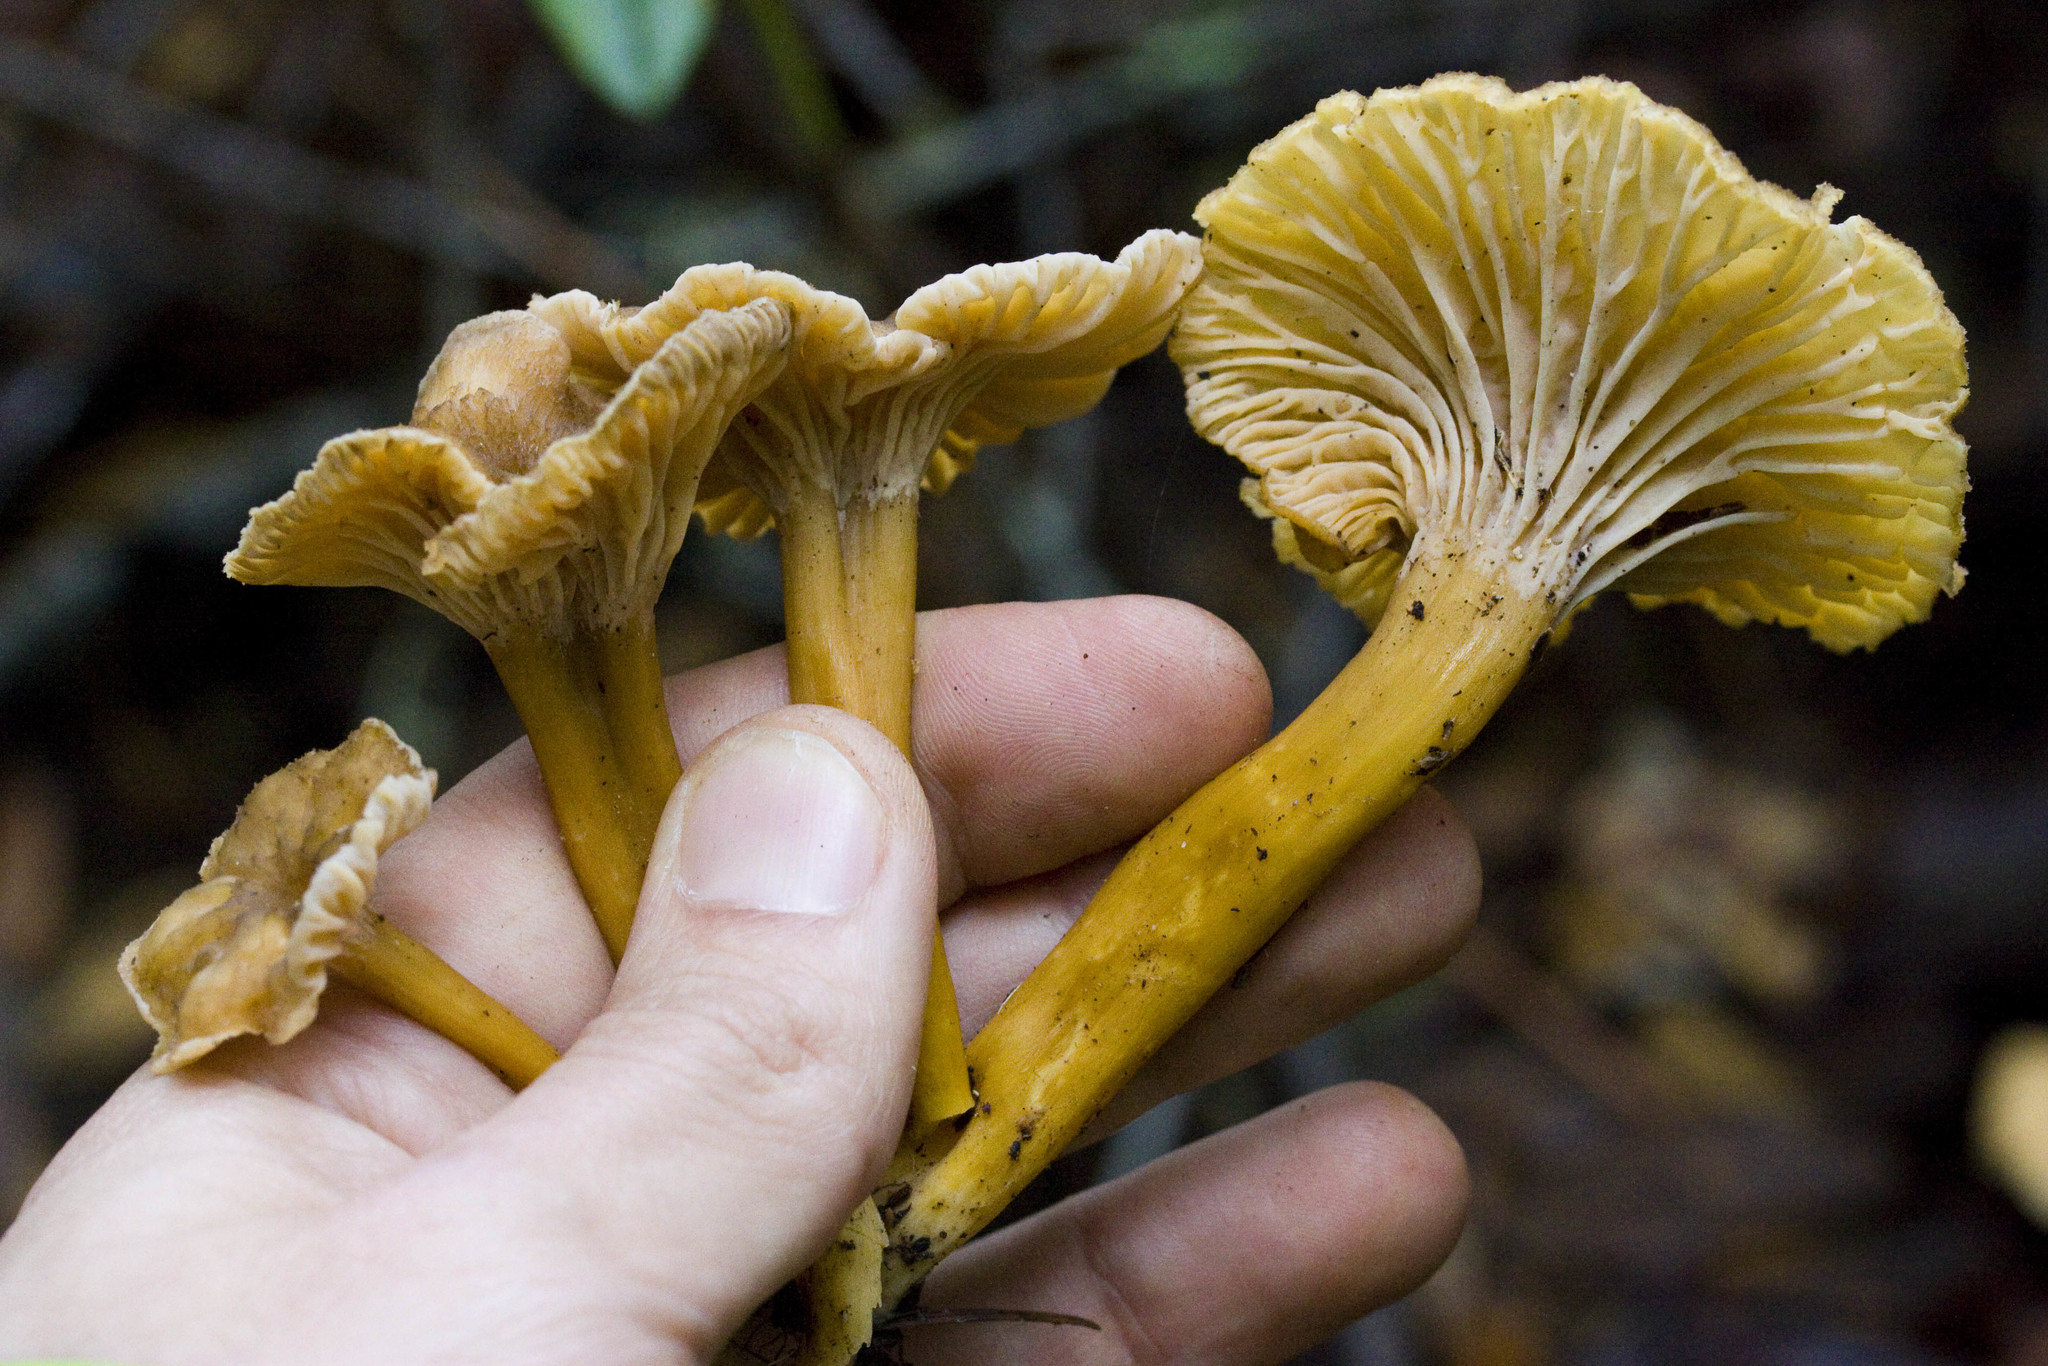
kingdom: Fungi
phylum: Basidiomycota
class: Agaricomycetes
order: Cantharellales
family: Hydnaceae
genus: Craterellus
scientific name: Craterellus tubaeformis
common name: Yellowfoot
